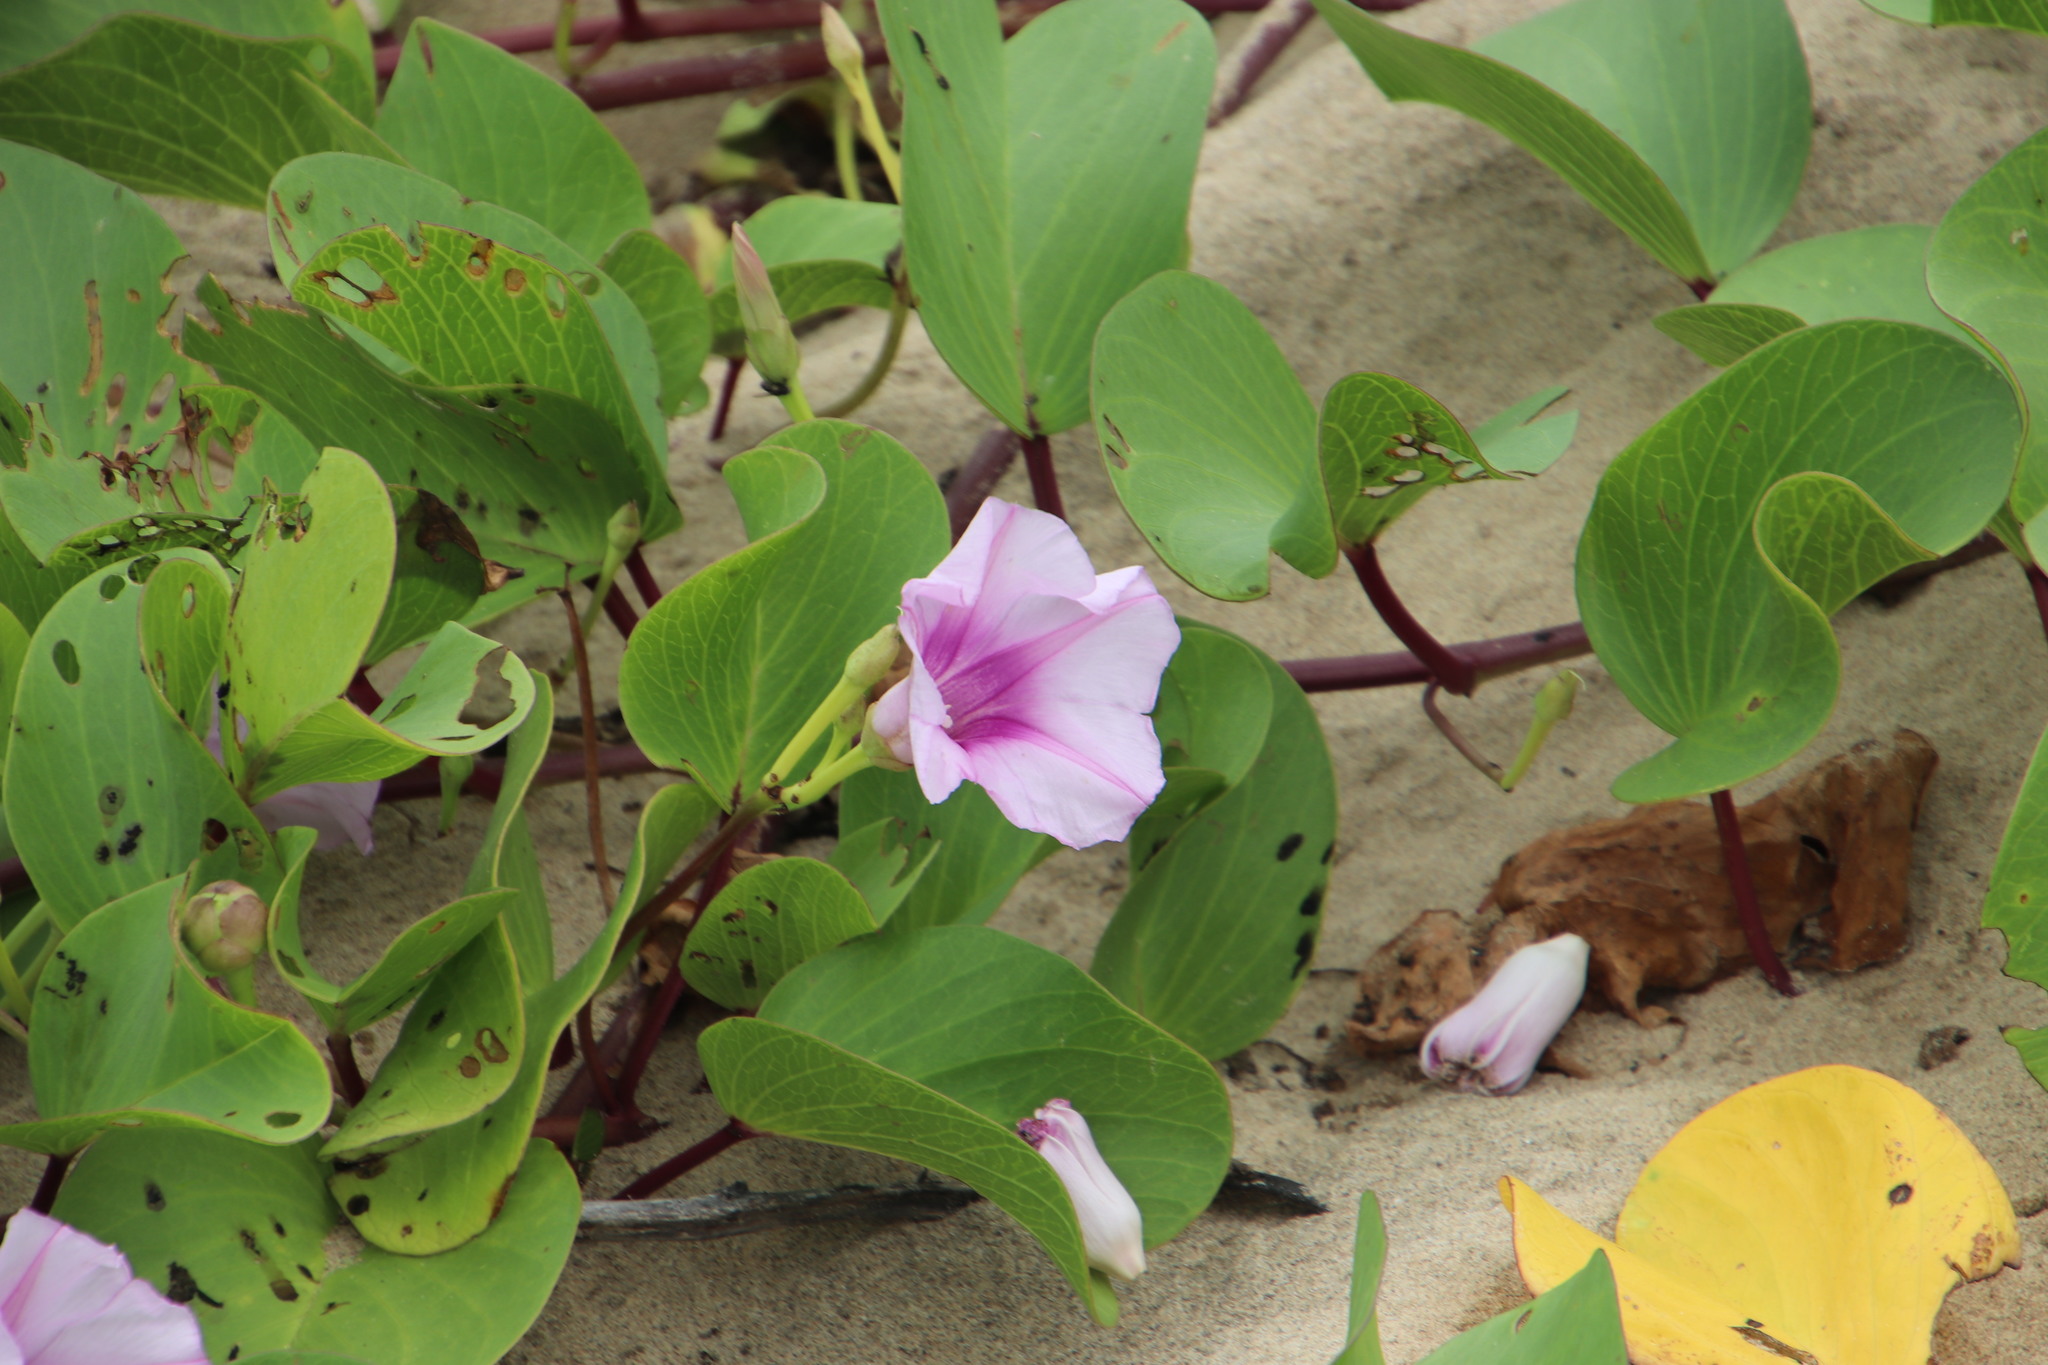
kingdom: Plantae
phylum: Tracheophyta
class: Magnoliopsida
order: Solanales
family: Convolvulaceae
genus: Ipomoea
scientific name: Ipomoea pes-caprae
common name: Beach morning glory
